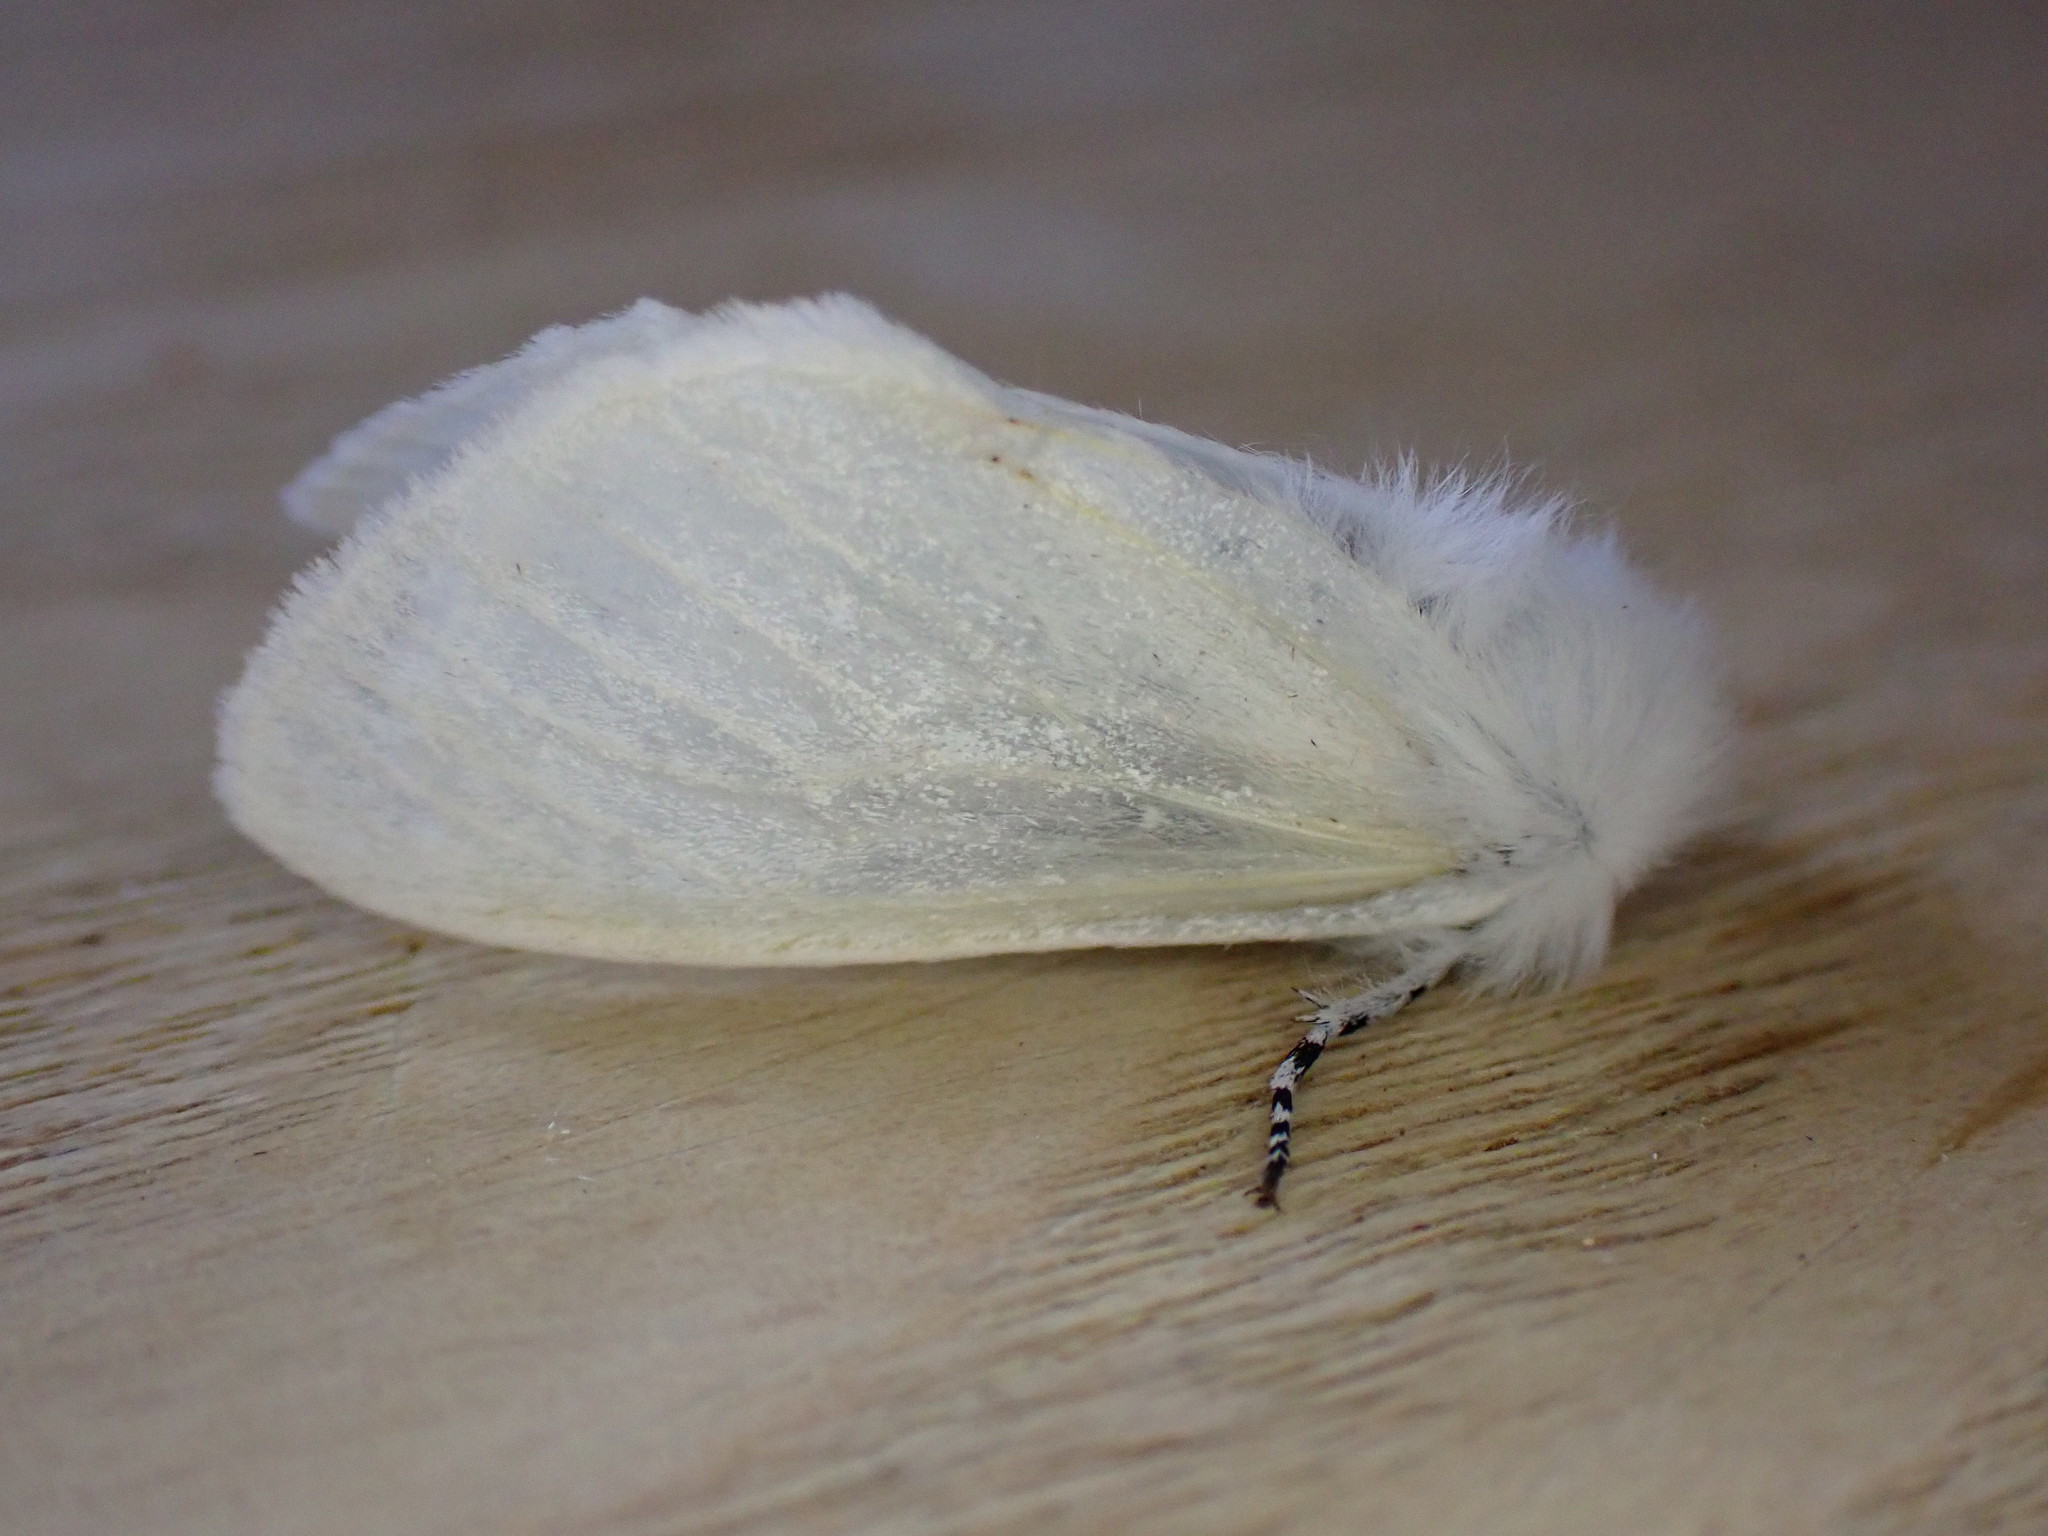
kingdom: Animalia
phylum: Arthropoda
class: Insecta
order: Lepidoptera
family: Erebidae
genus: Leucoma
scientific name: Leucoma salicis
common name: White satin moth
